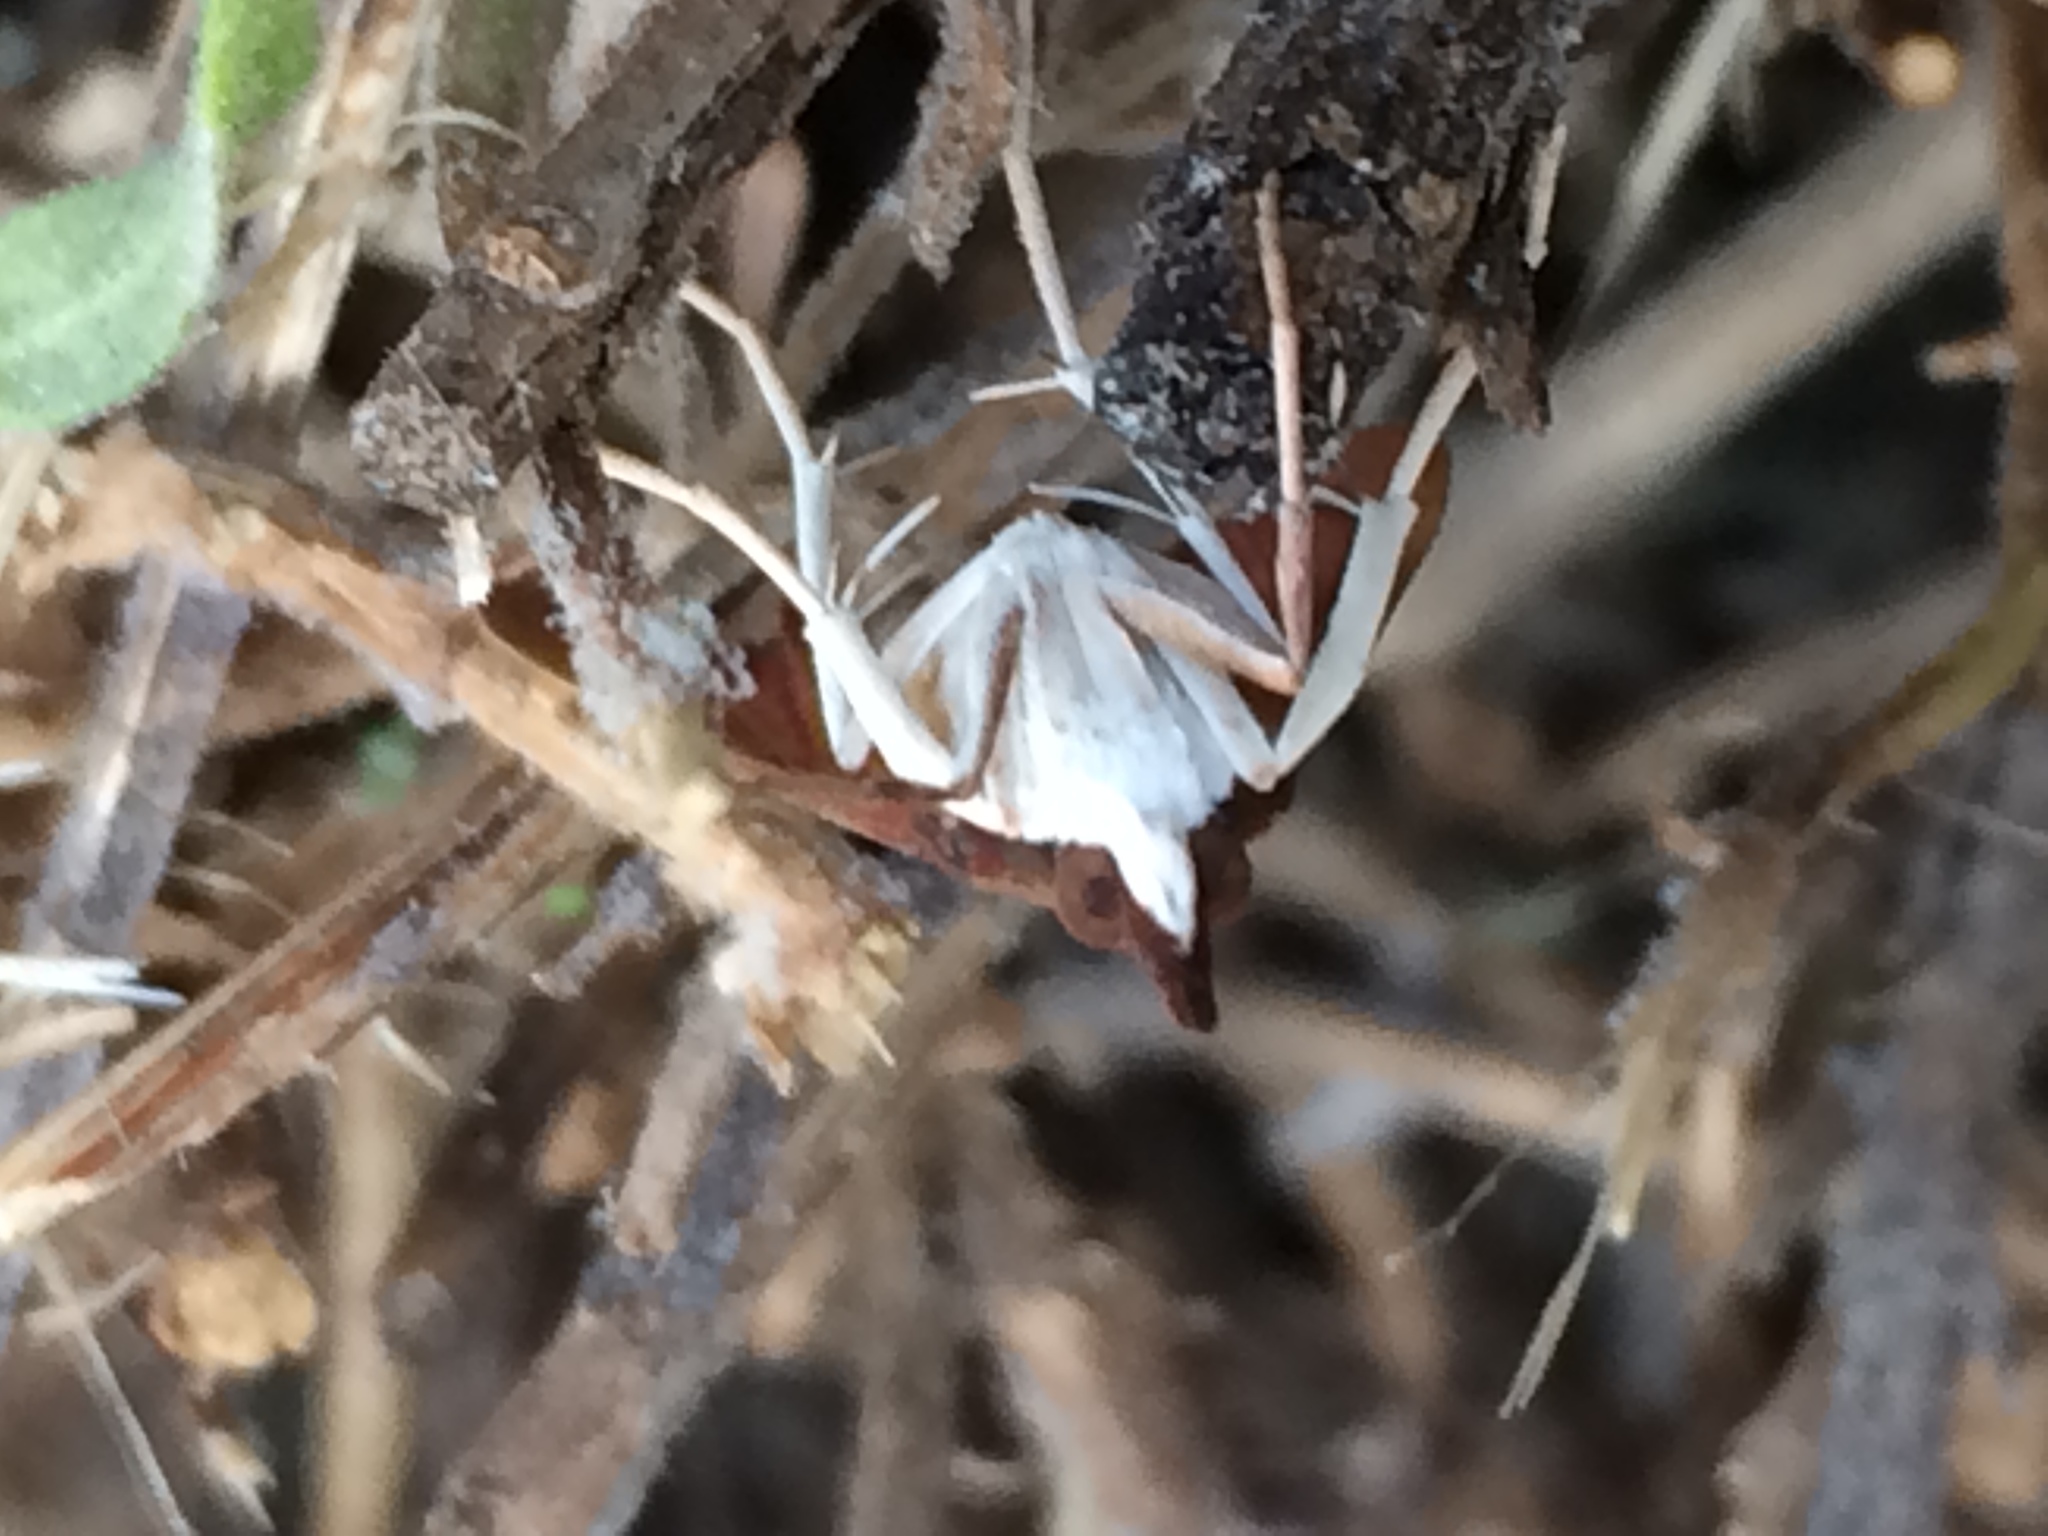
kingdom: Animalia
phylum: Arthropoda
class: Insecta
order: Lepidoptera
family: Crambidae
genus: Uresiphita
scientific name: Uresiphita reversalis
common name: Genista broom moth
